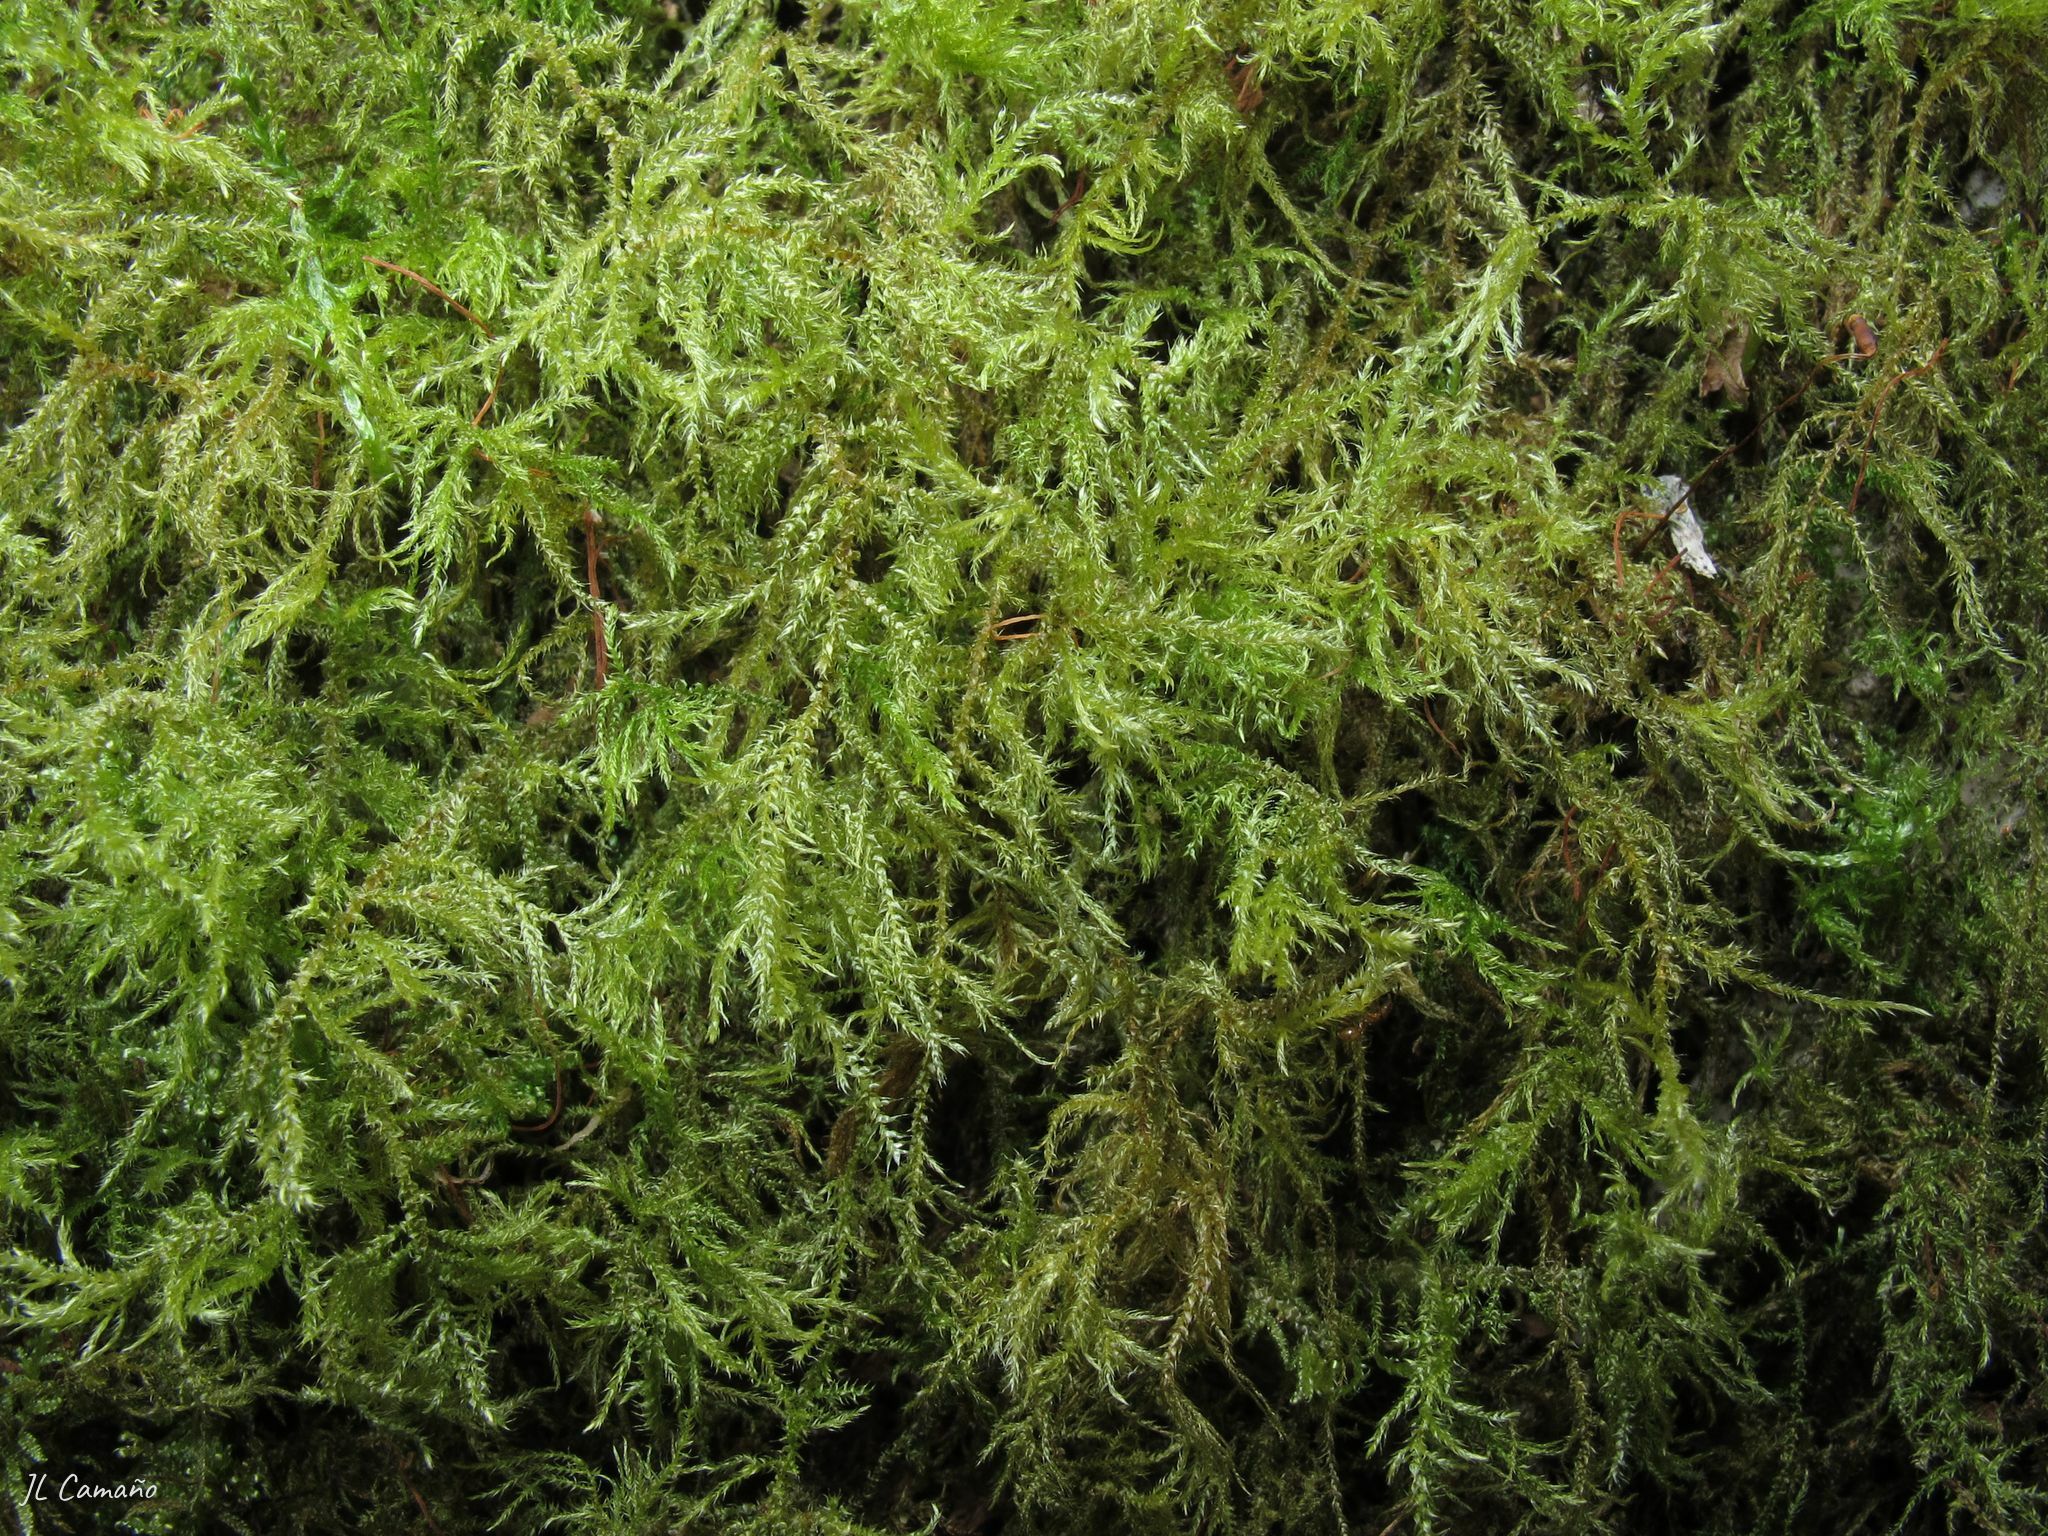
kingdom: Plantae
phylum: Bryophyta
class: Bryopsida
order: Hypnales
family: Brachytheciaceae
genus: Kindbergia
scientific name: Kindbergia praelonga
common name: Slender beaked moss
